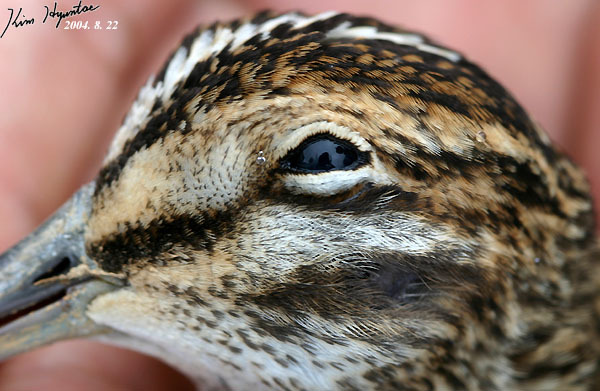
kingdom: Animalia
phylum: Chordata
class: Aves
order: Charadriiformes
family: Scolopacidae
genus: Gallinago
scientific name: Gallinago stenura
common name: Pin-tailed snipe
